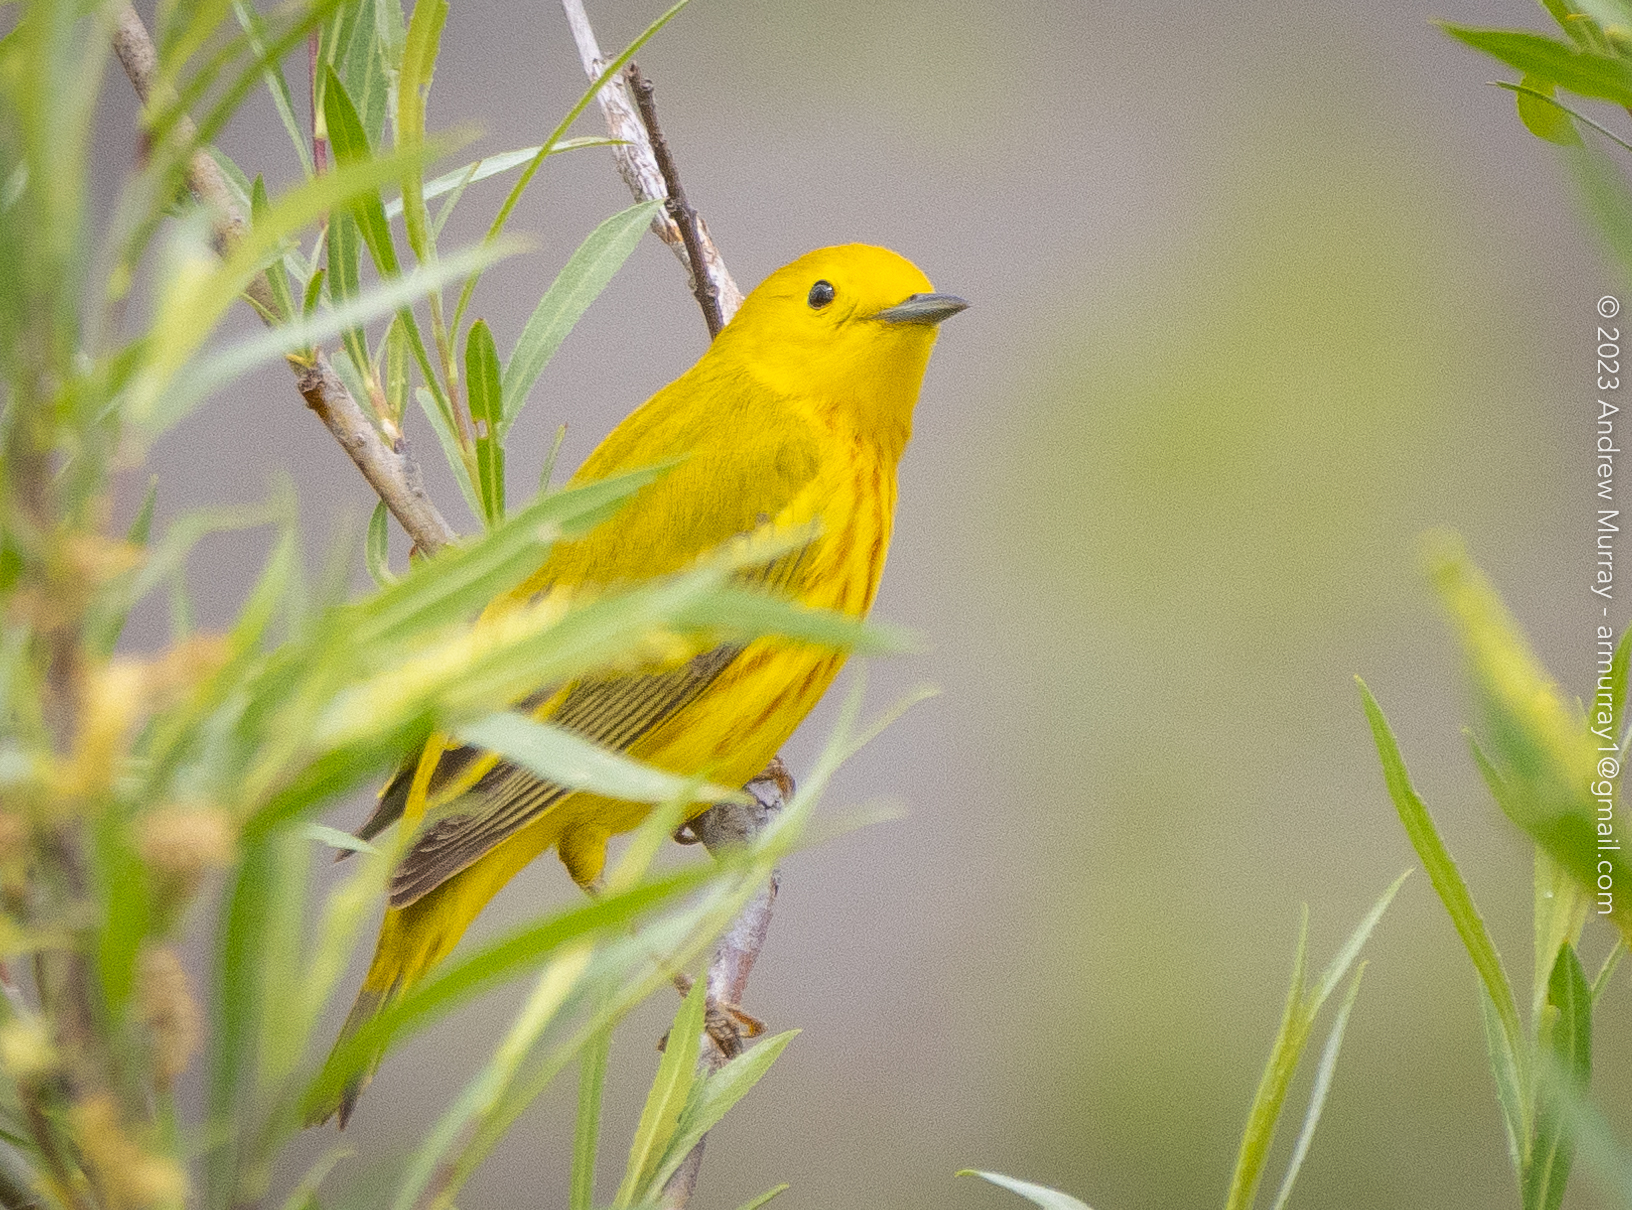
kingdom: Animalia
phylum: Chordata
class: Aves
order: Passeriformes
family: Parulidae
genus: Setophaga
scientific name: Setophaga petechia
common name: Yellow warbler
